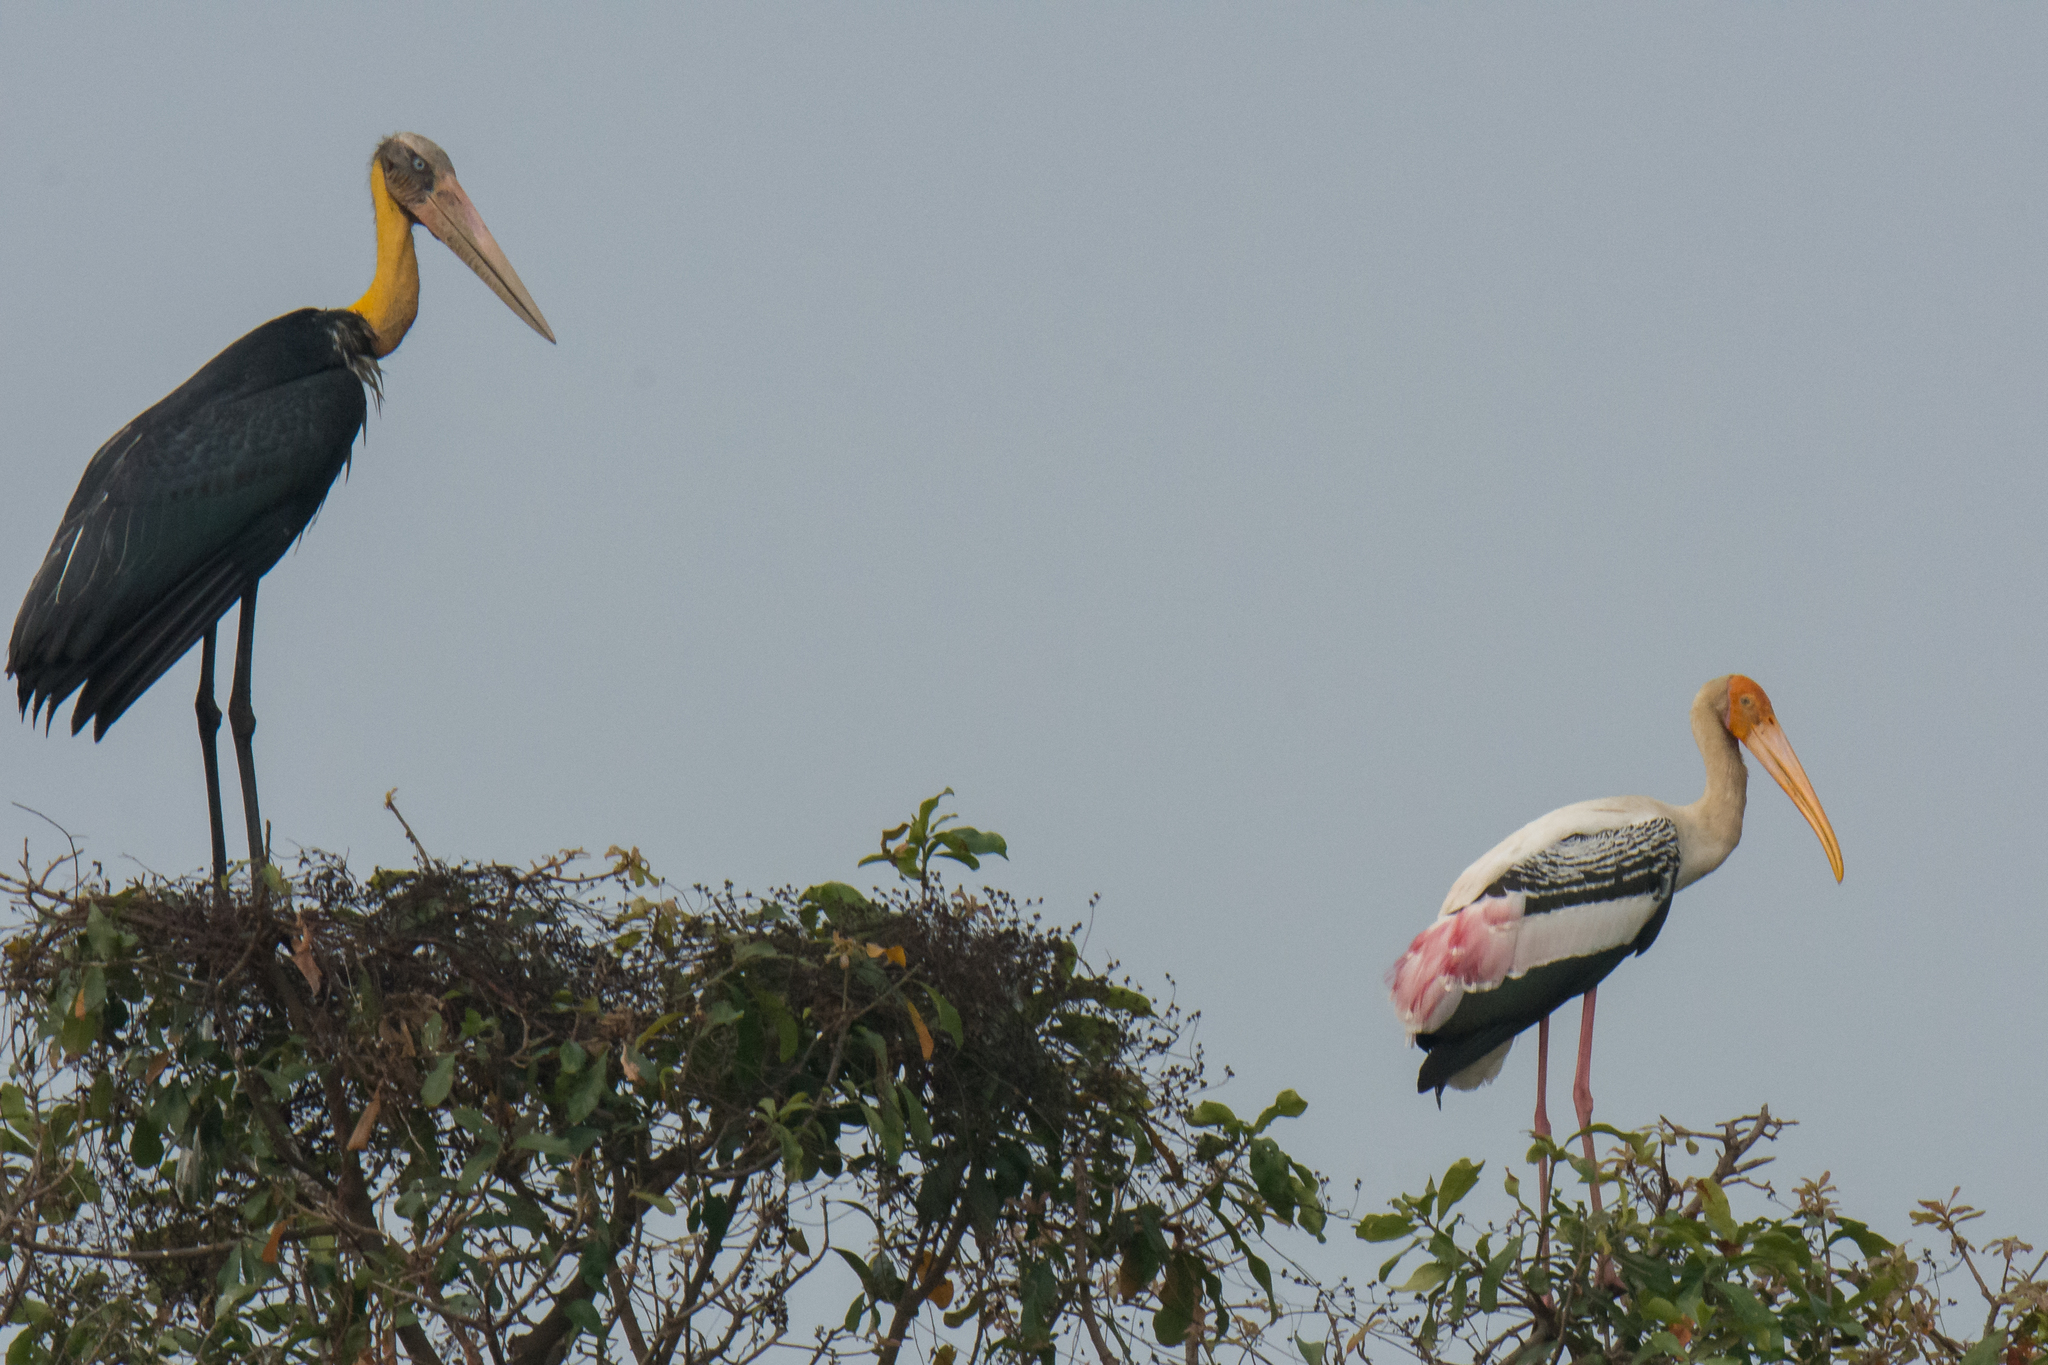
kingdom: Animalia
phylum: Chordata
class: Aves
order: Ciconiiformes
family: Ciconiidae
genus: Leptoptilos
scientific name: Leptoptilos javanicus
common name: Lesser adjutant
